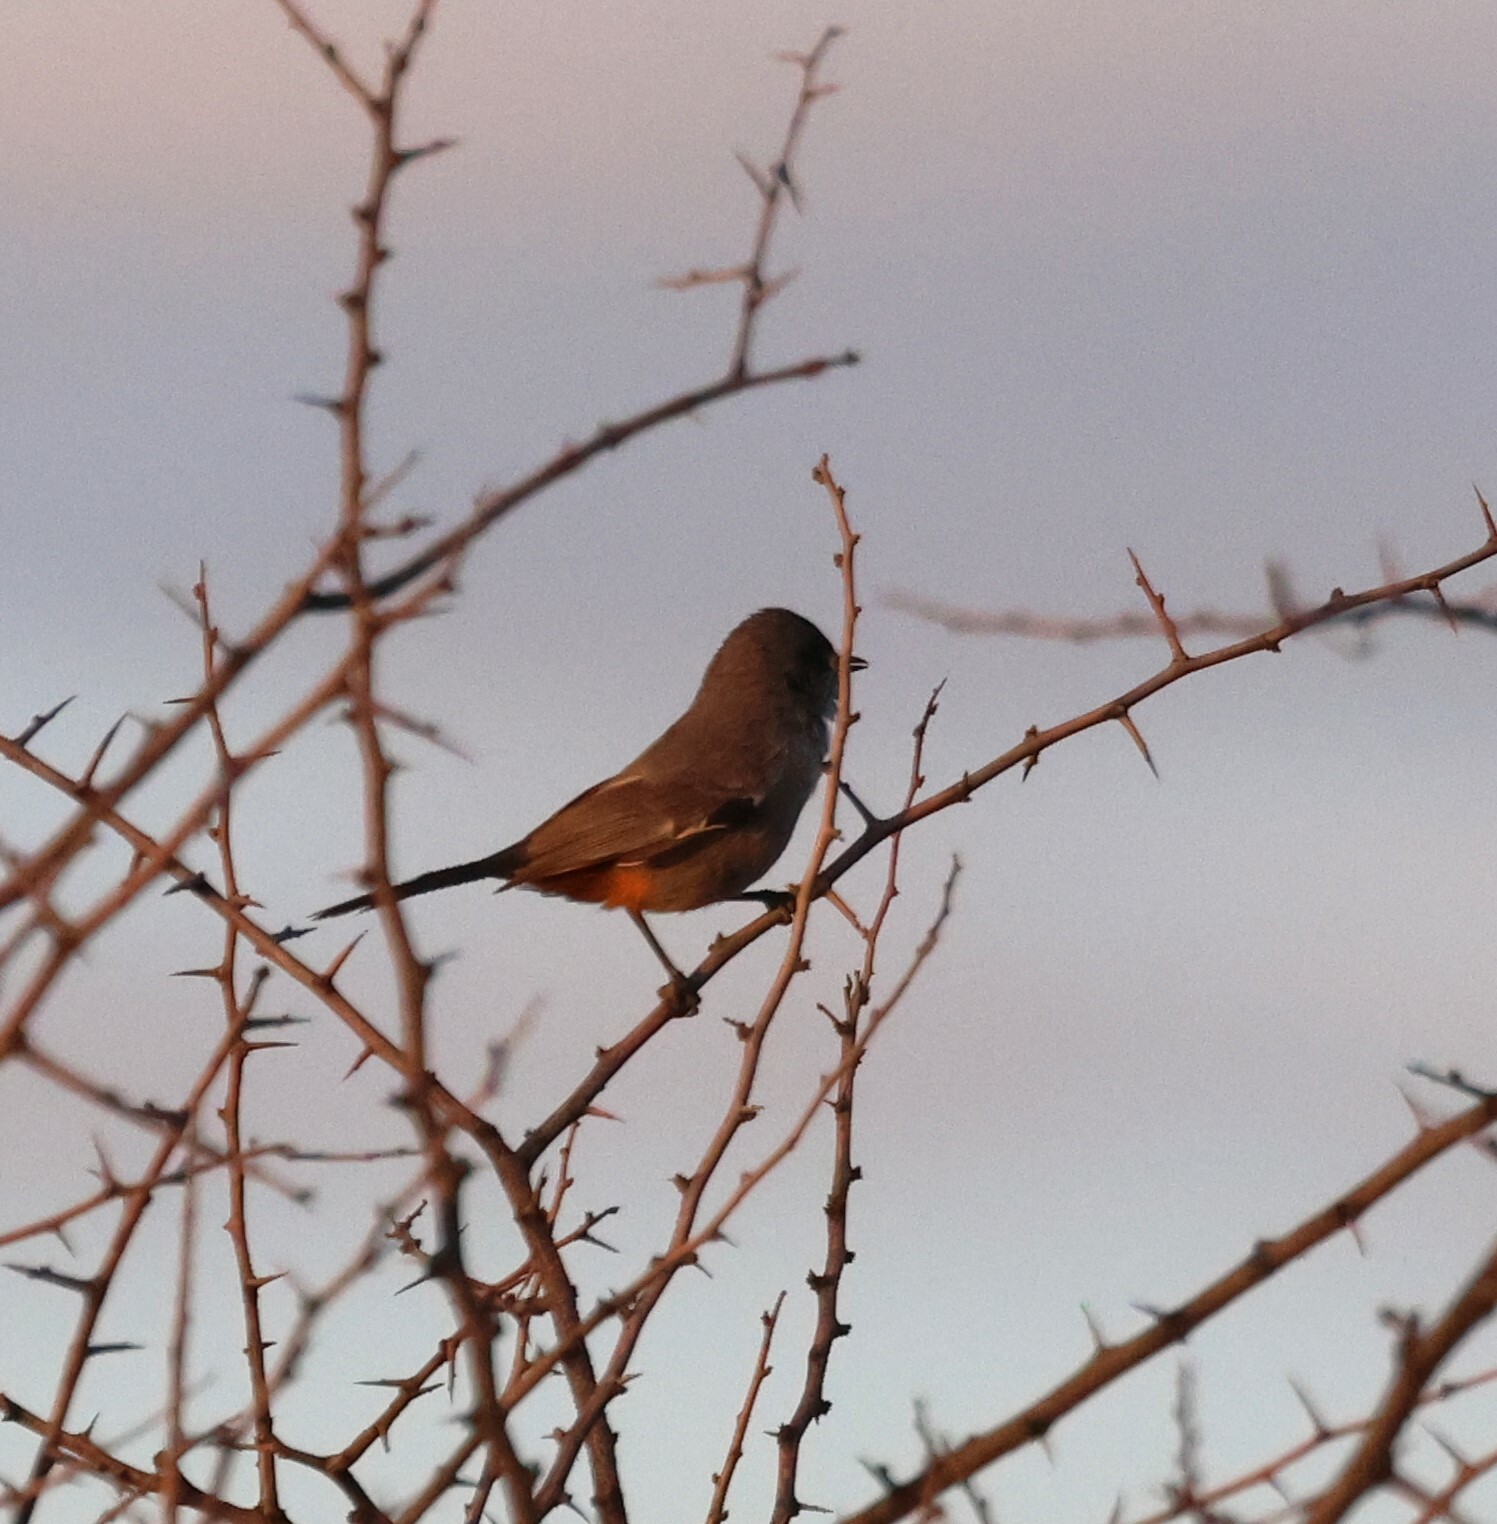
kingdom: Animalia
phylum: Chordata
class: Aves
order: Passeriformes
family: Sylviidae
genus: Curruca
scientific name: Curruca subcoerulea
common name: Chestnut-vented warbler
